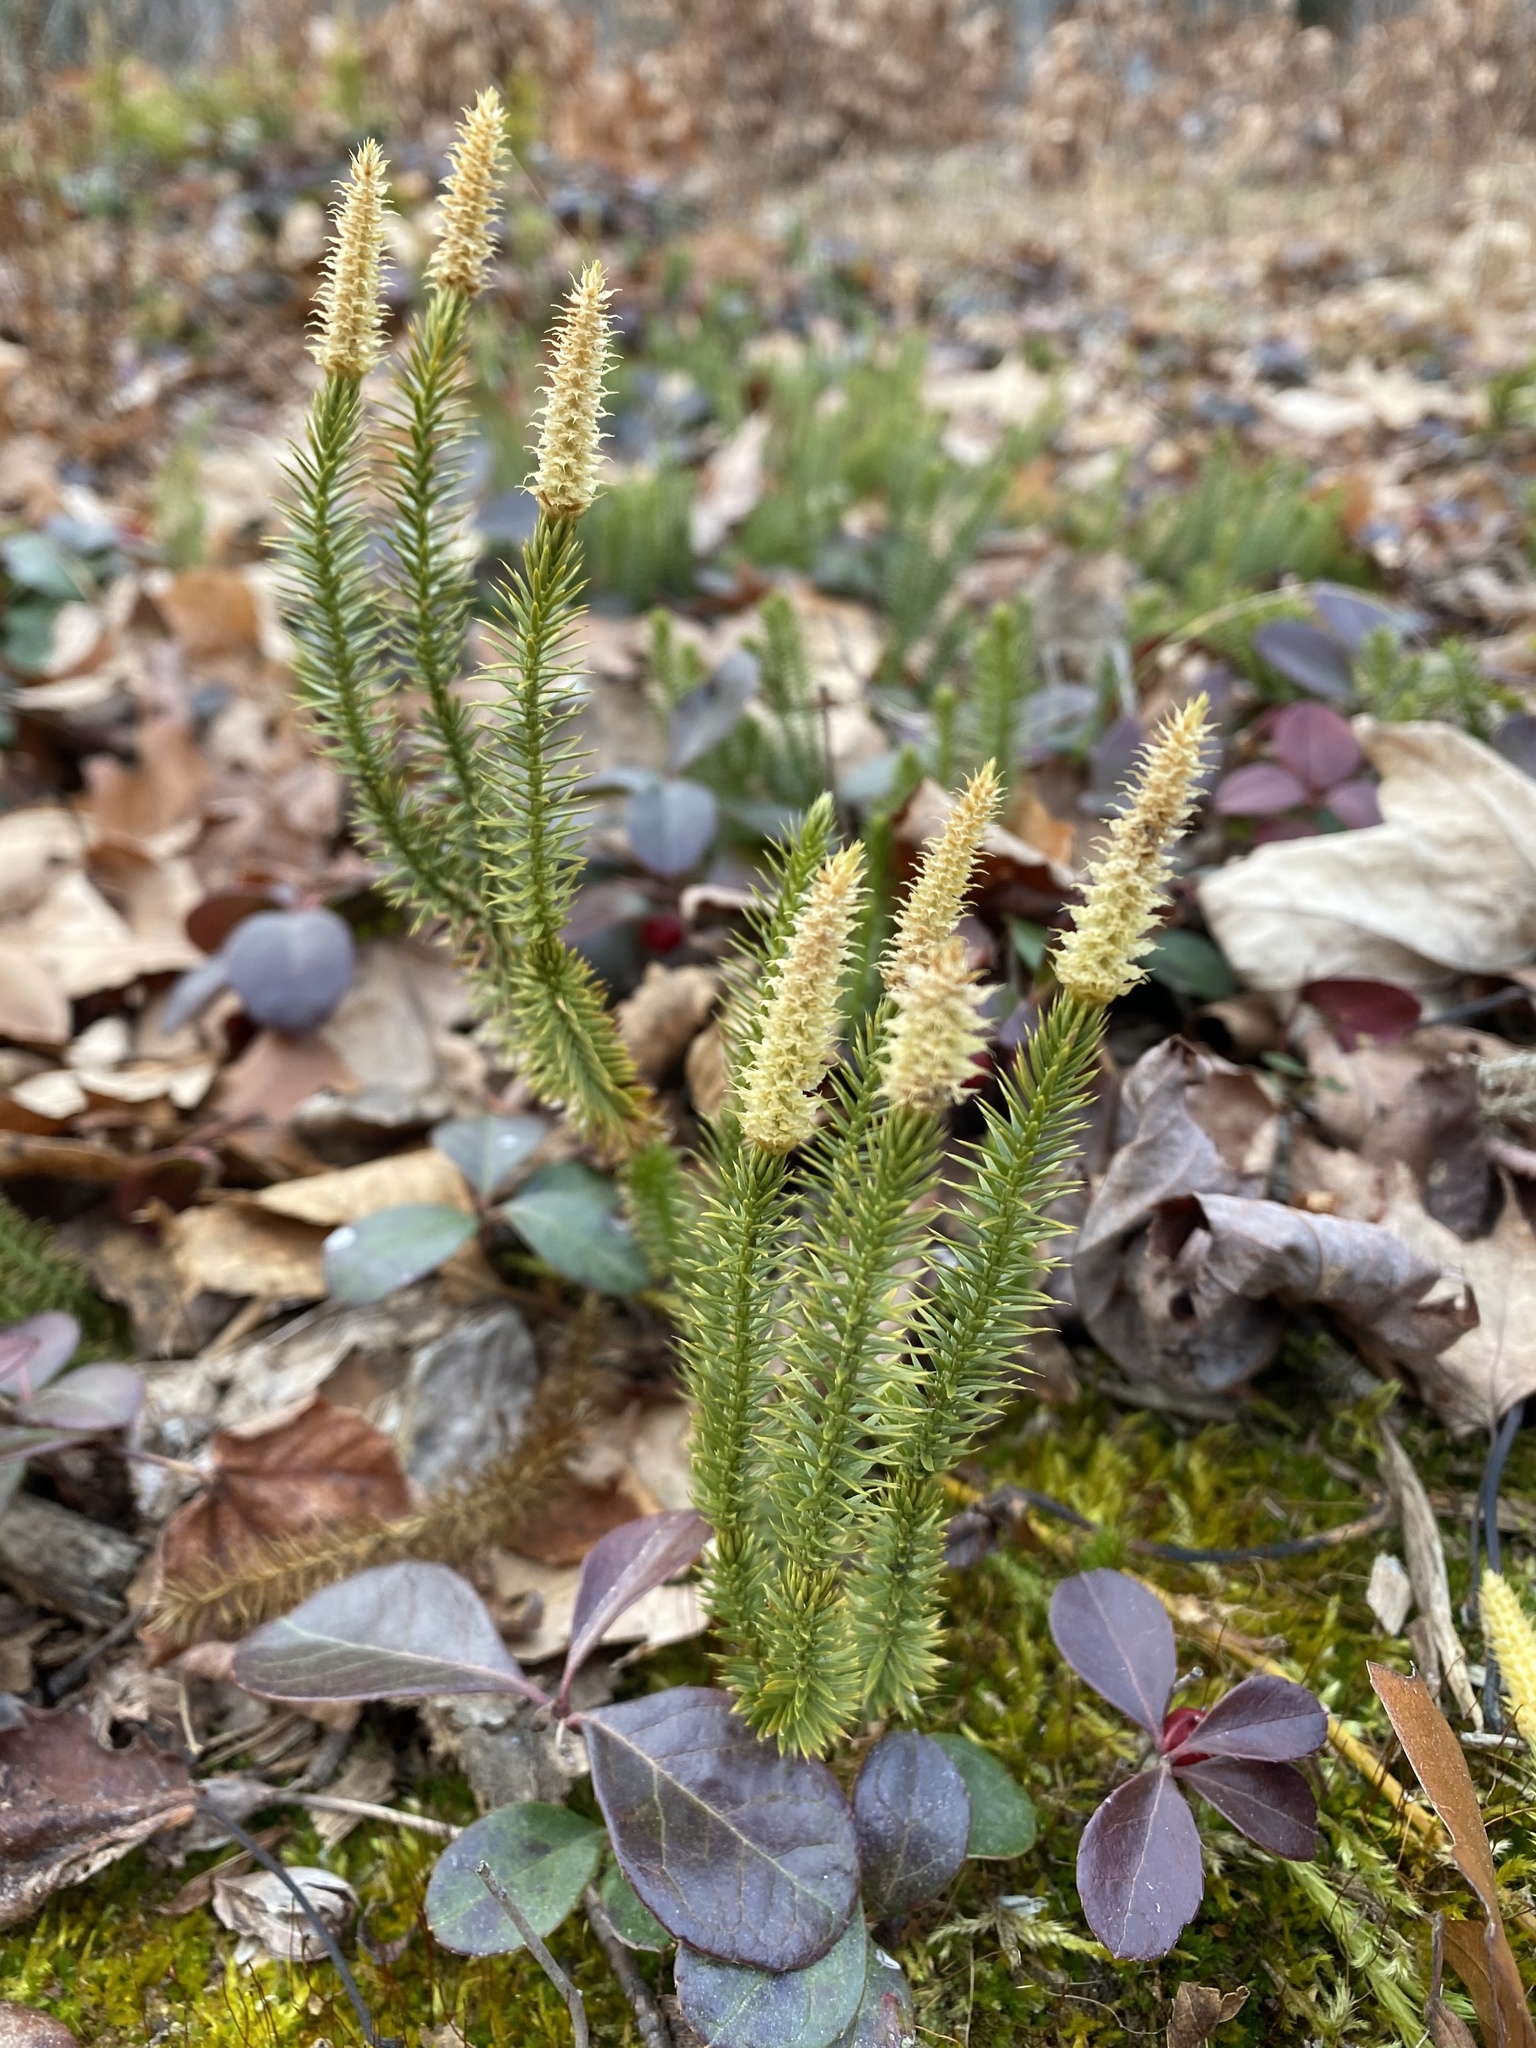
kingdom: Plantae
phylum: Tracheophyta
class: Lycopodiopsida
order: Lycopodiales
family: Lycopodiaceae
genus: Spinulum
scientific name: Spinulum annotinum
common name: Interrupted club-moss
